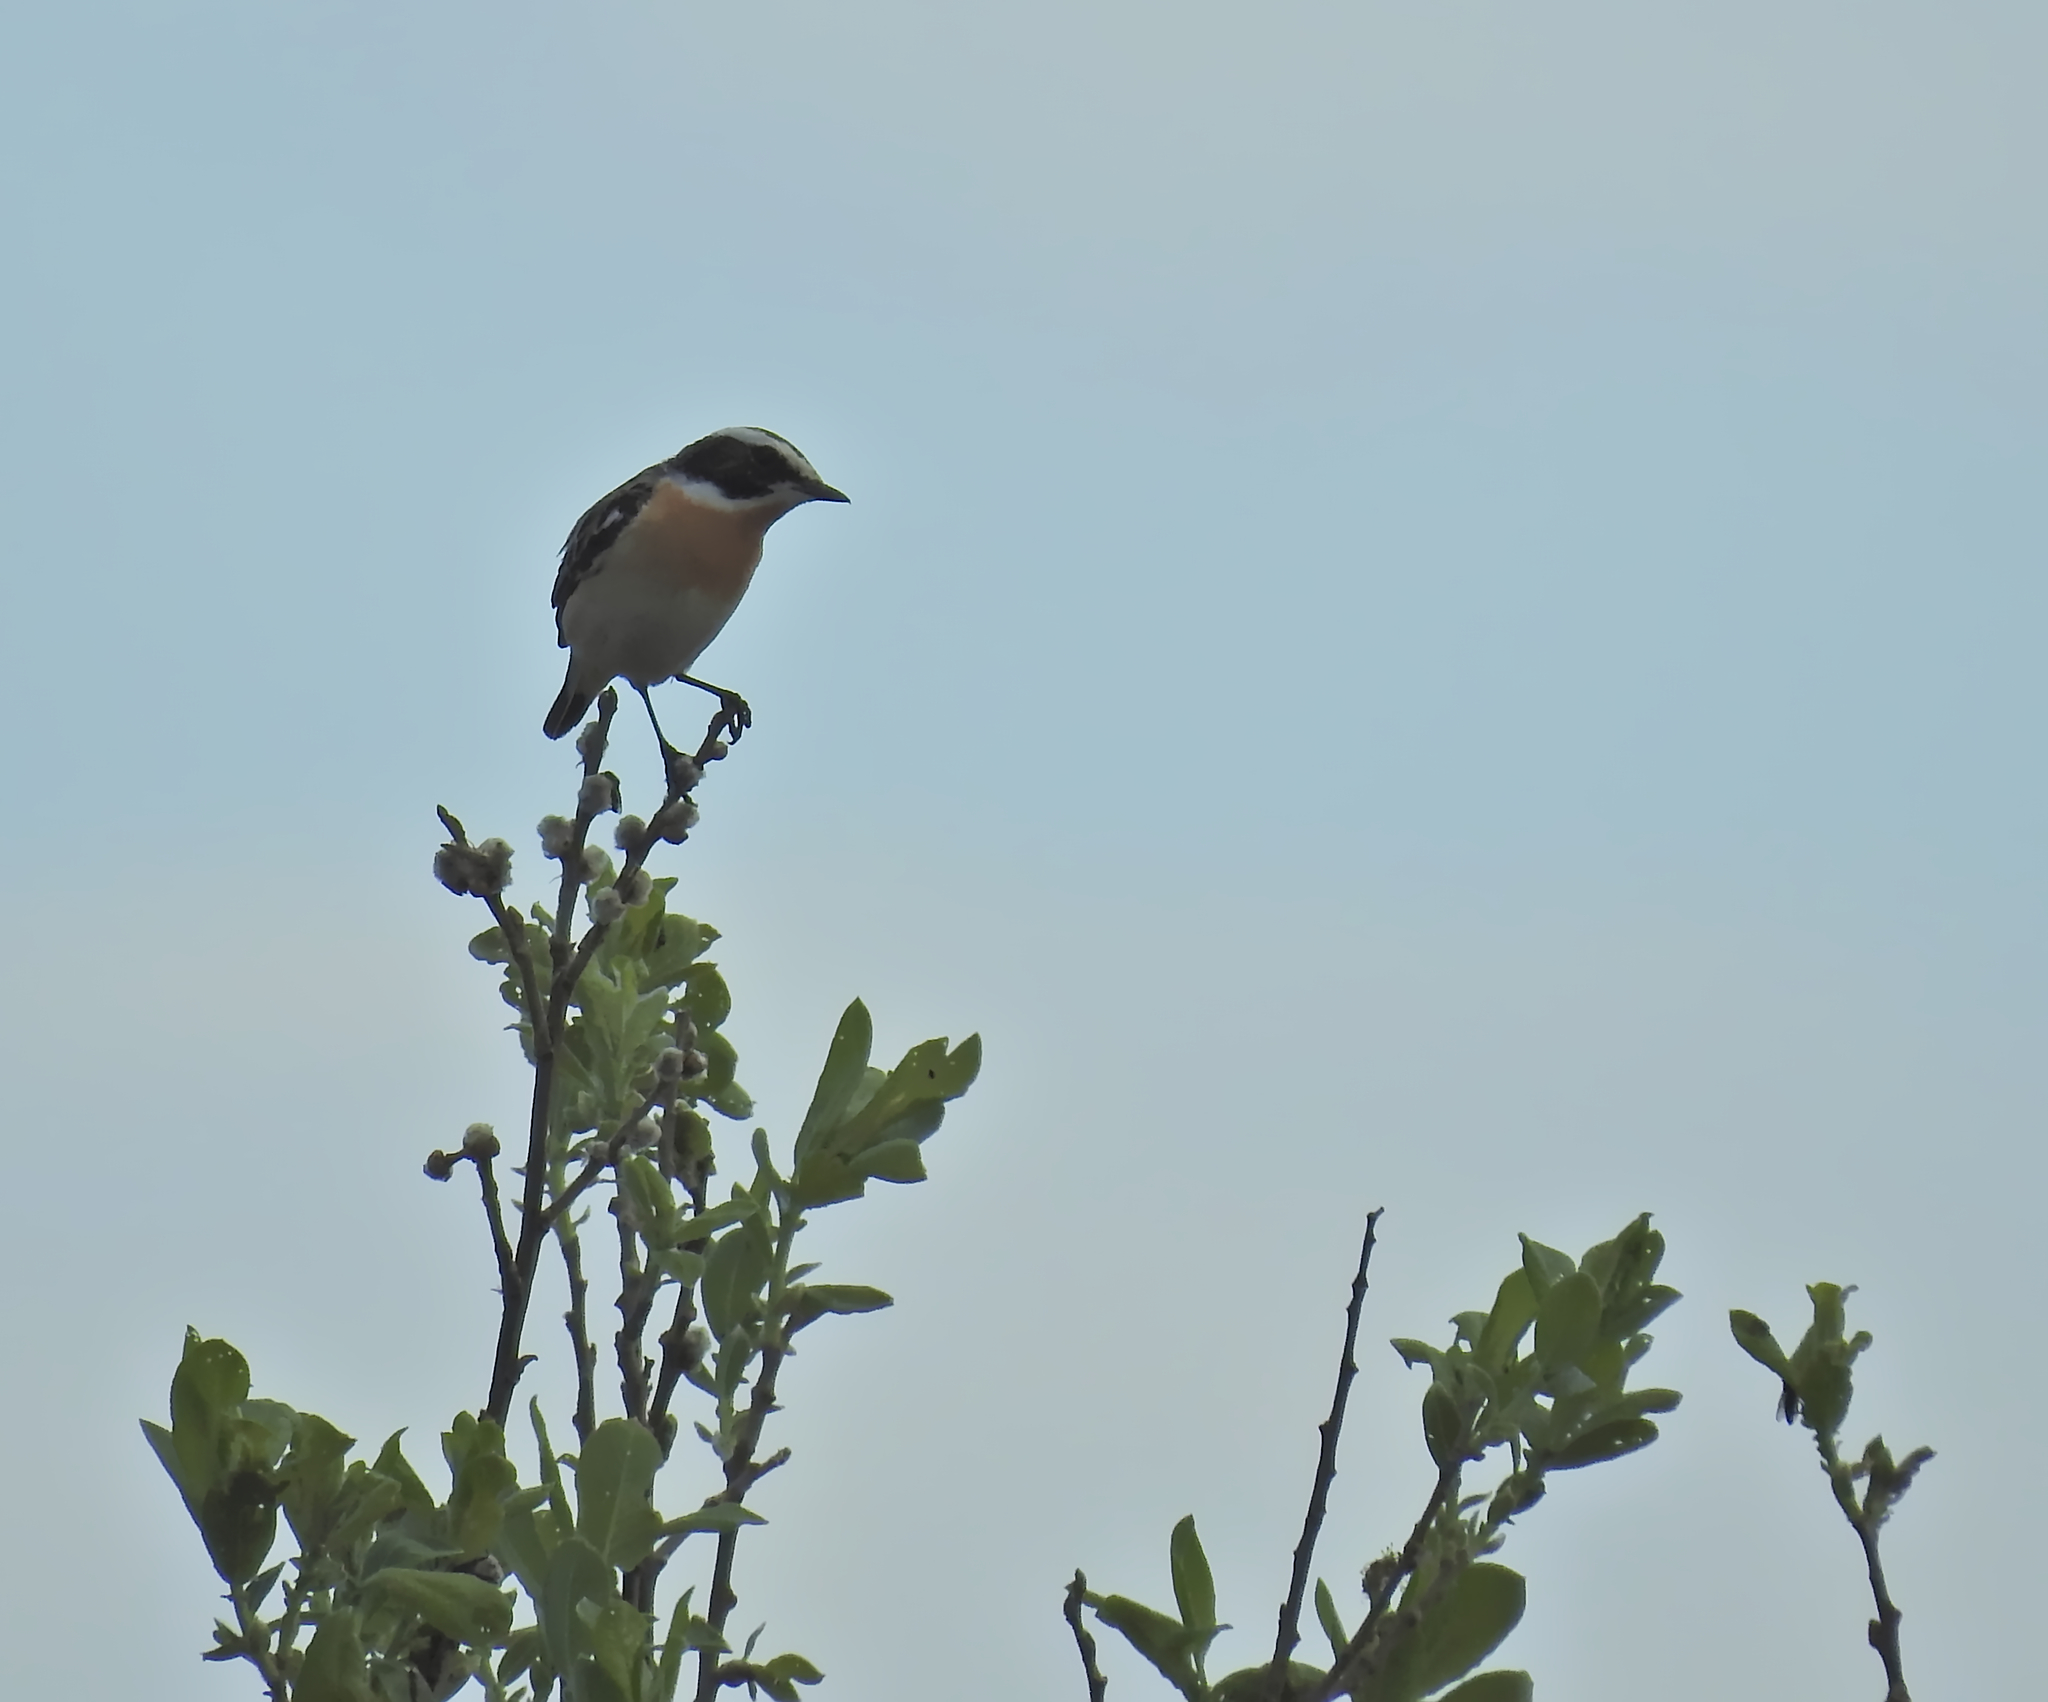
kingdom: Animalia
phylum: Chordata
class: Aves
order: Passeriformes
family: Muscicapidae
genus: Saxicola
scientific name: Saxicola rubetra
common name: Whinchat
